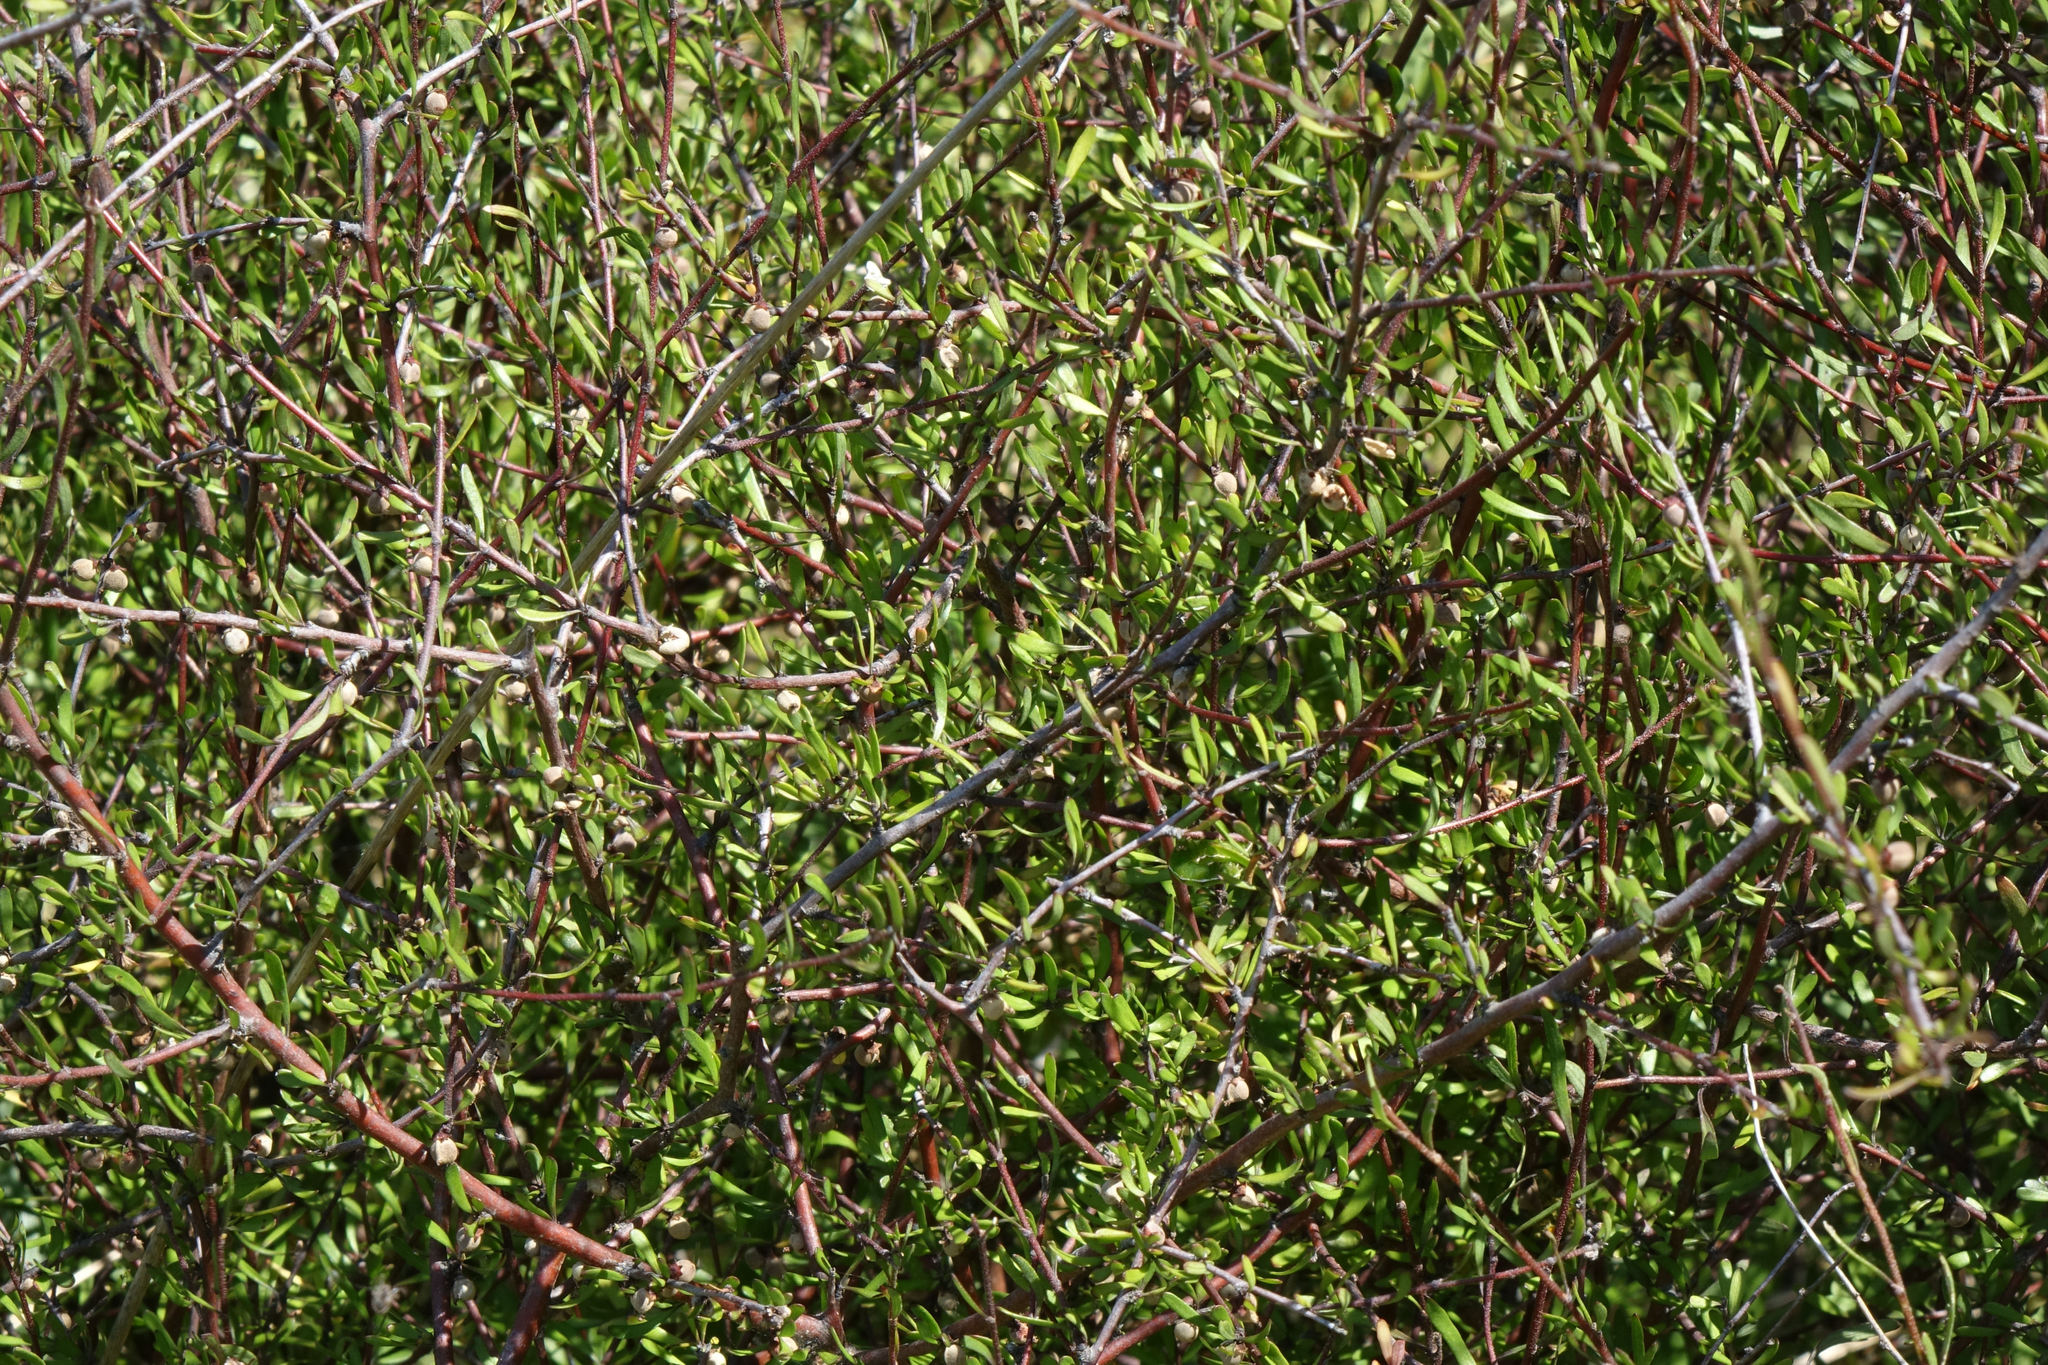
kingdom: Plantae
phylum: Tracheophyta
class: Magnoliopsida
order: Malvales
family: Malvaceae
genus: Plagianthus
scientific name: Plagianthus divaricatus
